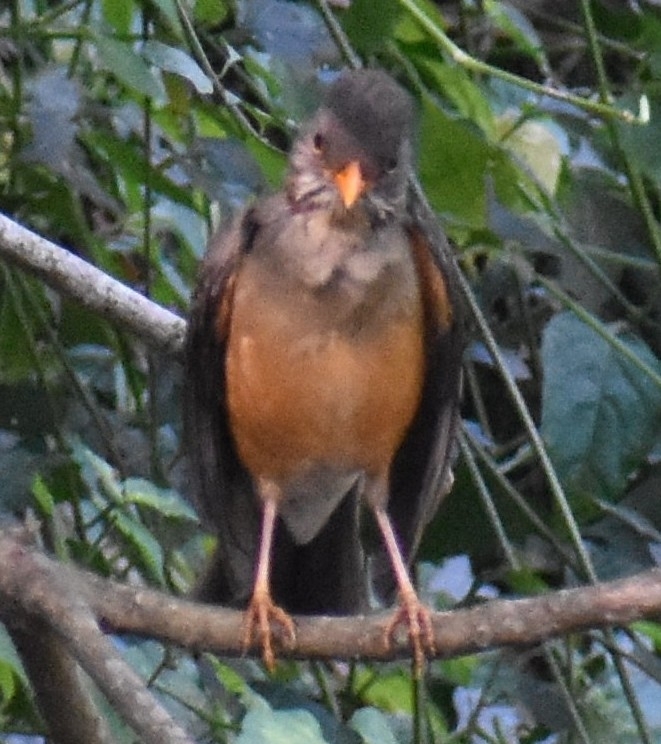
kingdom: Animalia
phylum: Chordata
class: Aves
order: Passeriformes
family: Turdidae
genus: Turdus
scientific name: Turdus libonyana
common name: Kurrichane thrush
